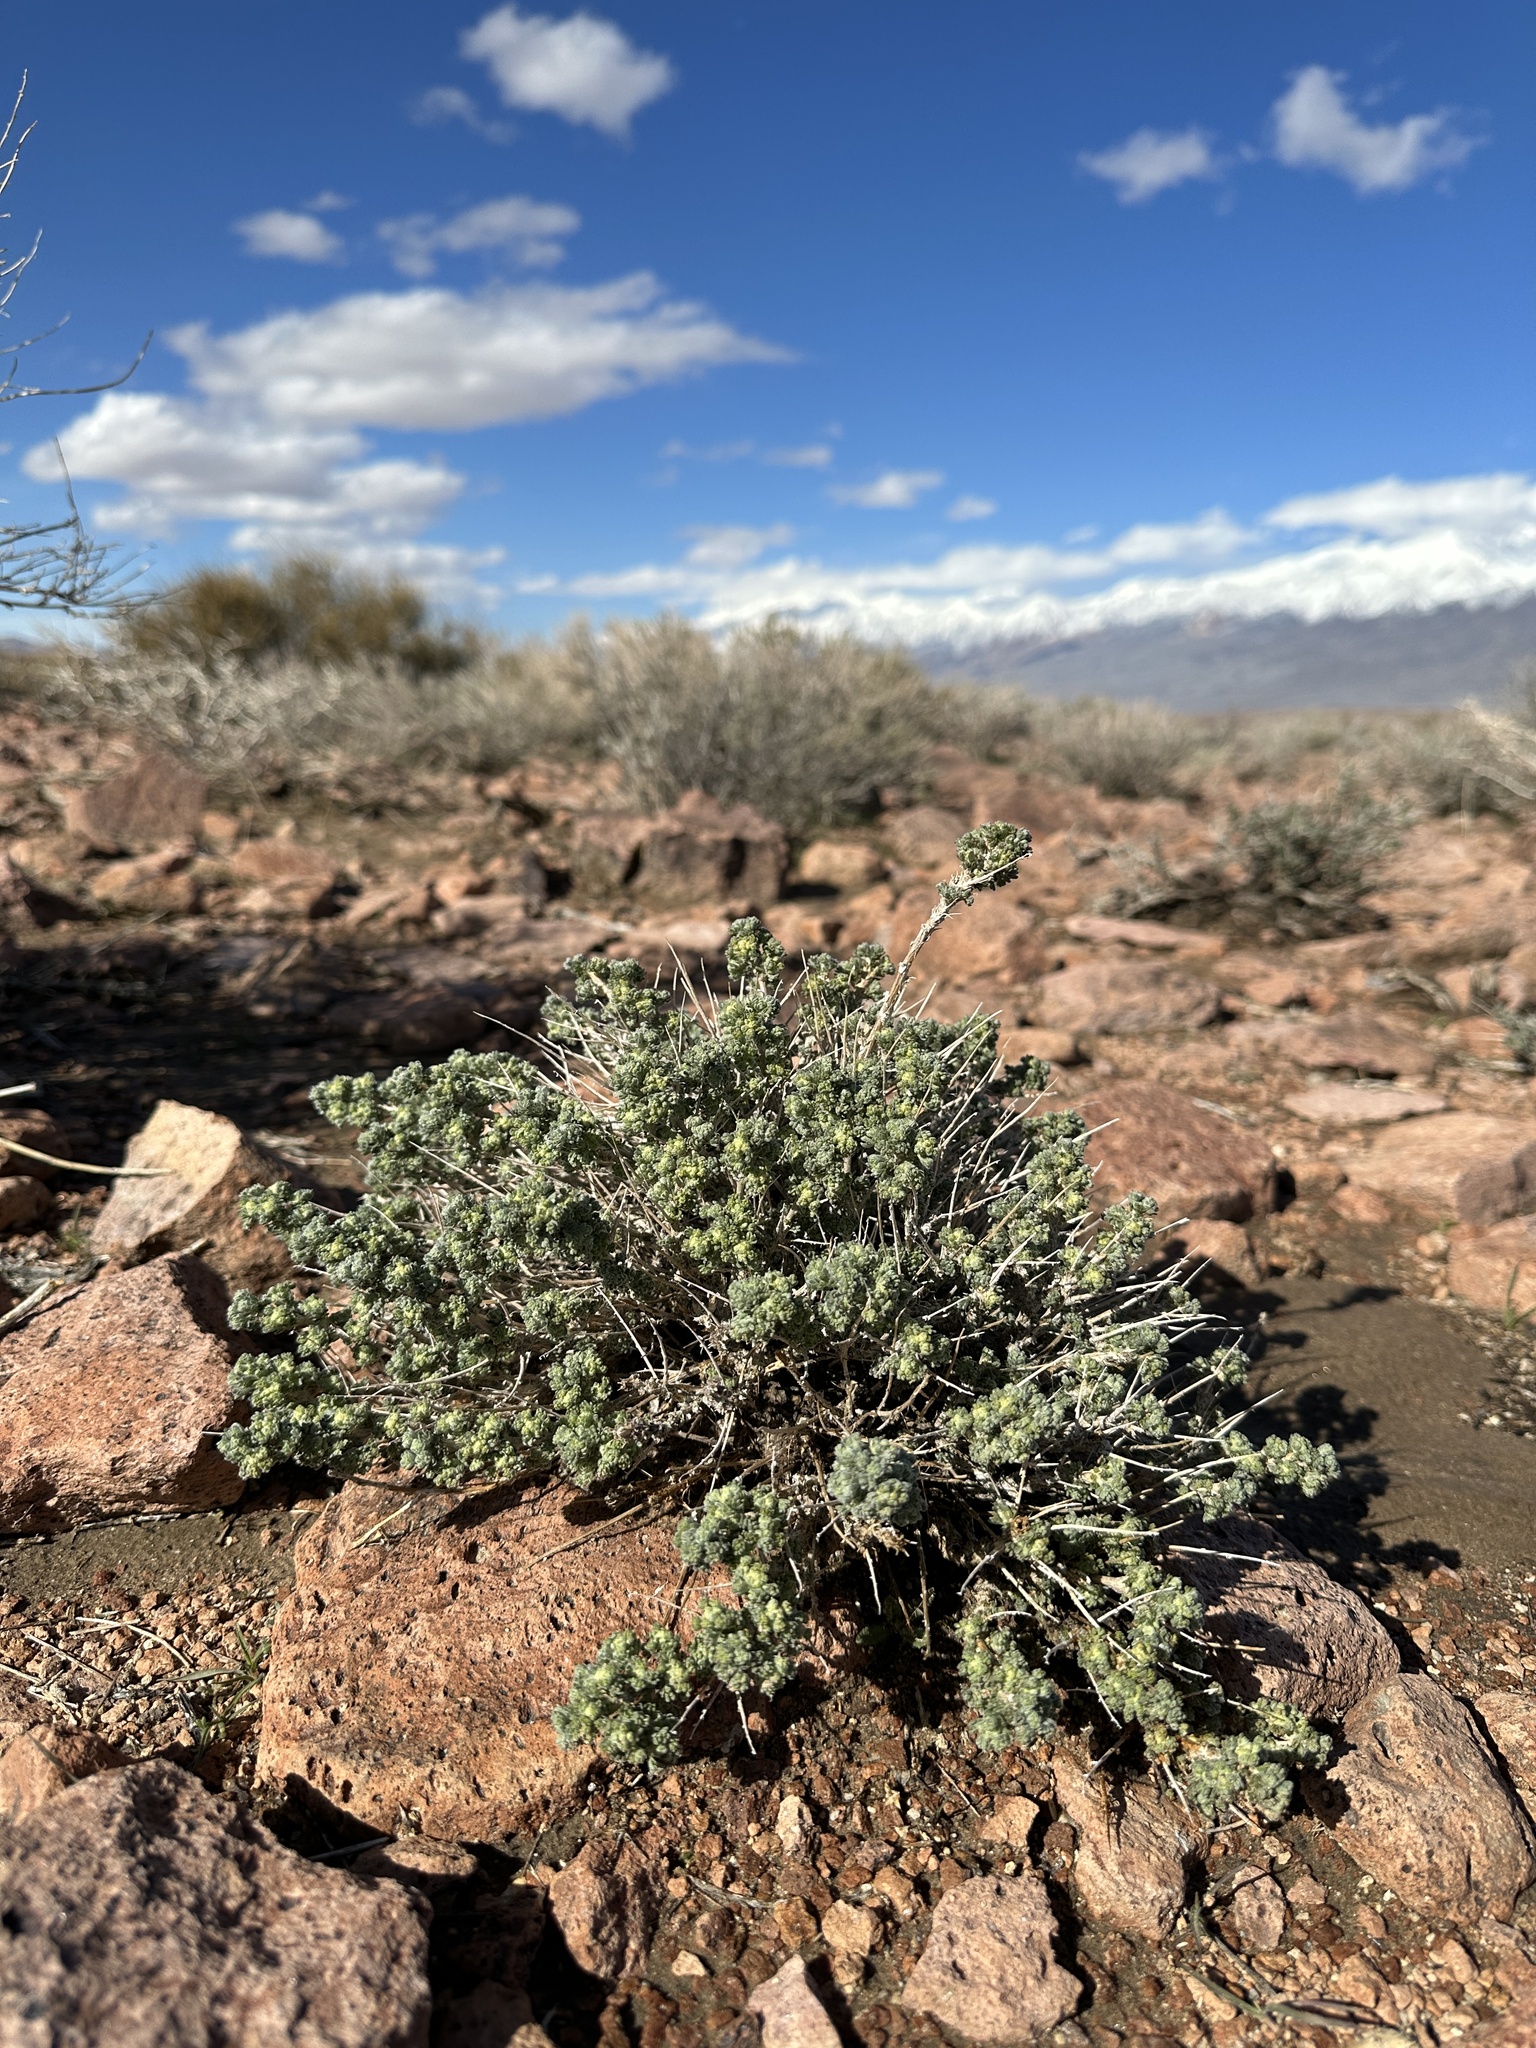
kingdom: Plantae
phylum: Tracheophyta
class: Magnoliopsida
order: Asterales
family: Asteraceae
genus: Artemisia
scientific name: Artemisia spinescens
